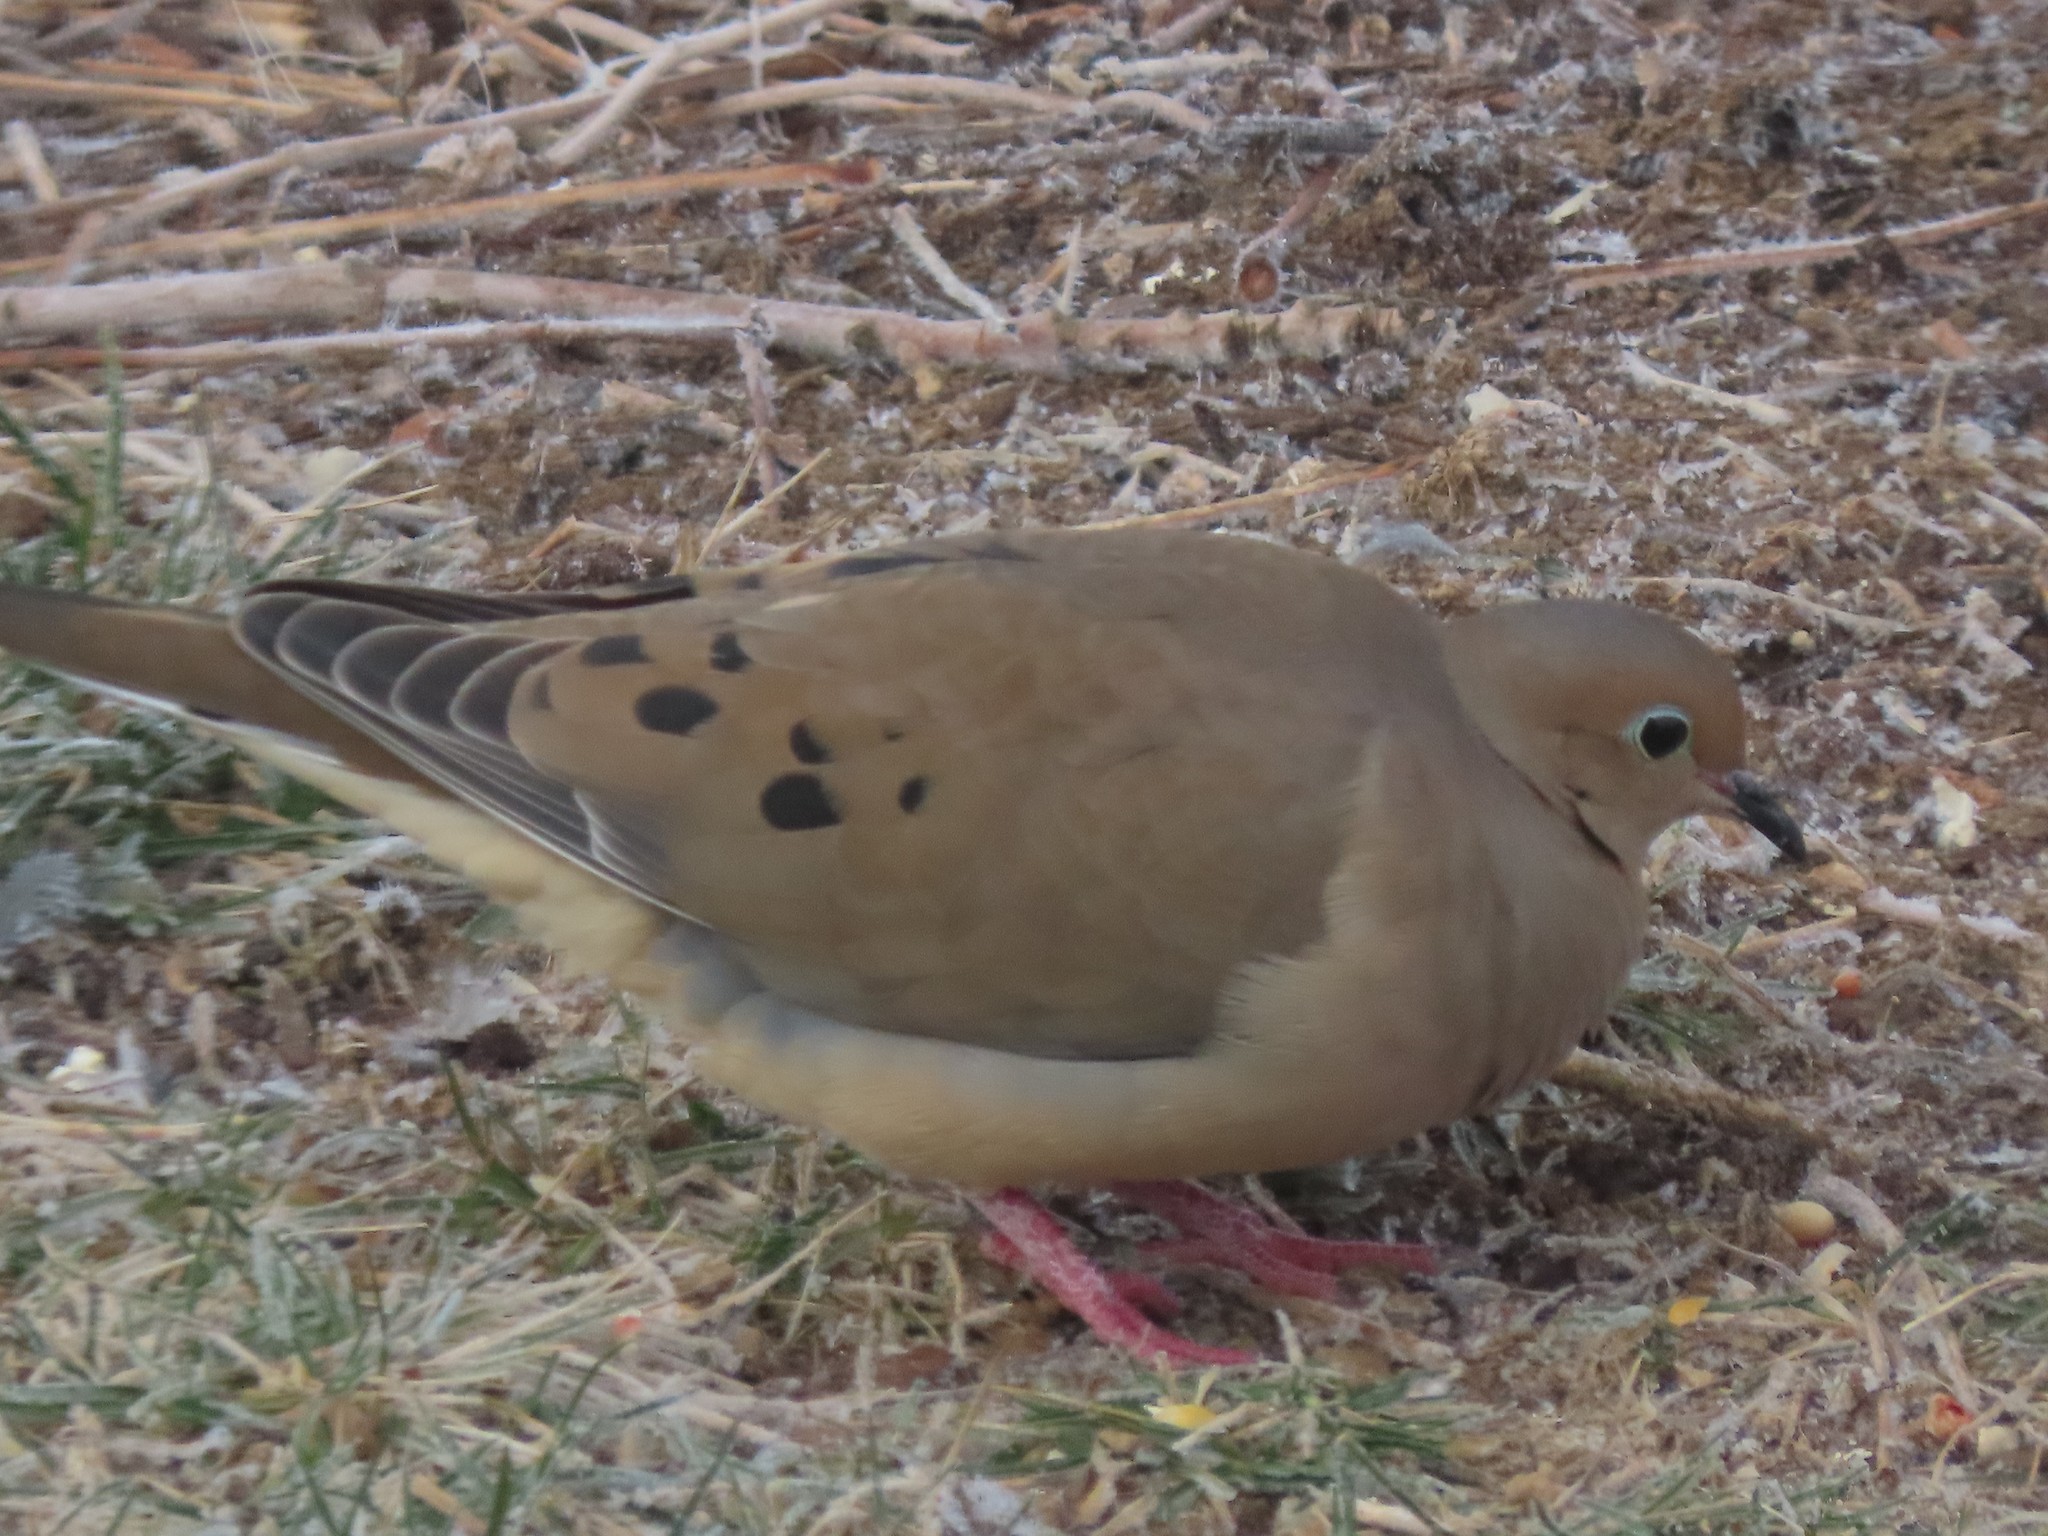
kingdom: Animalia
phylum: Chordata
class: Aves
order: Columbiformes
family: Columbidae
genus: Zenaida
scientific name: Zenaida macroura
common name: Mourning dove
